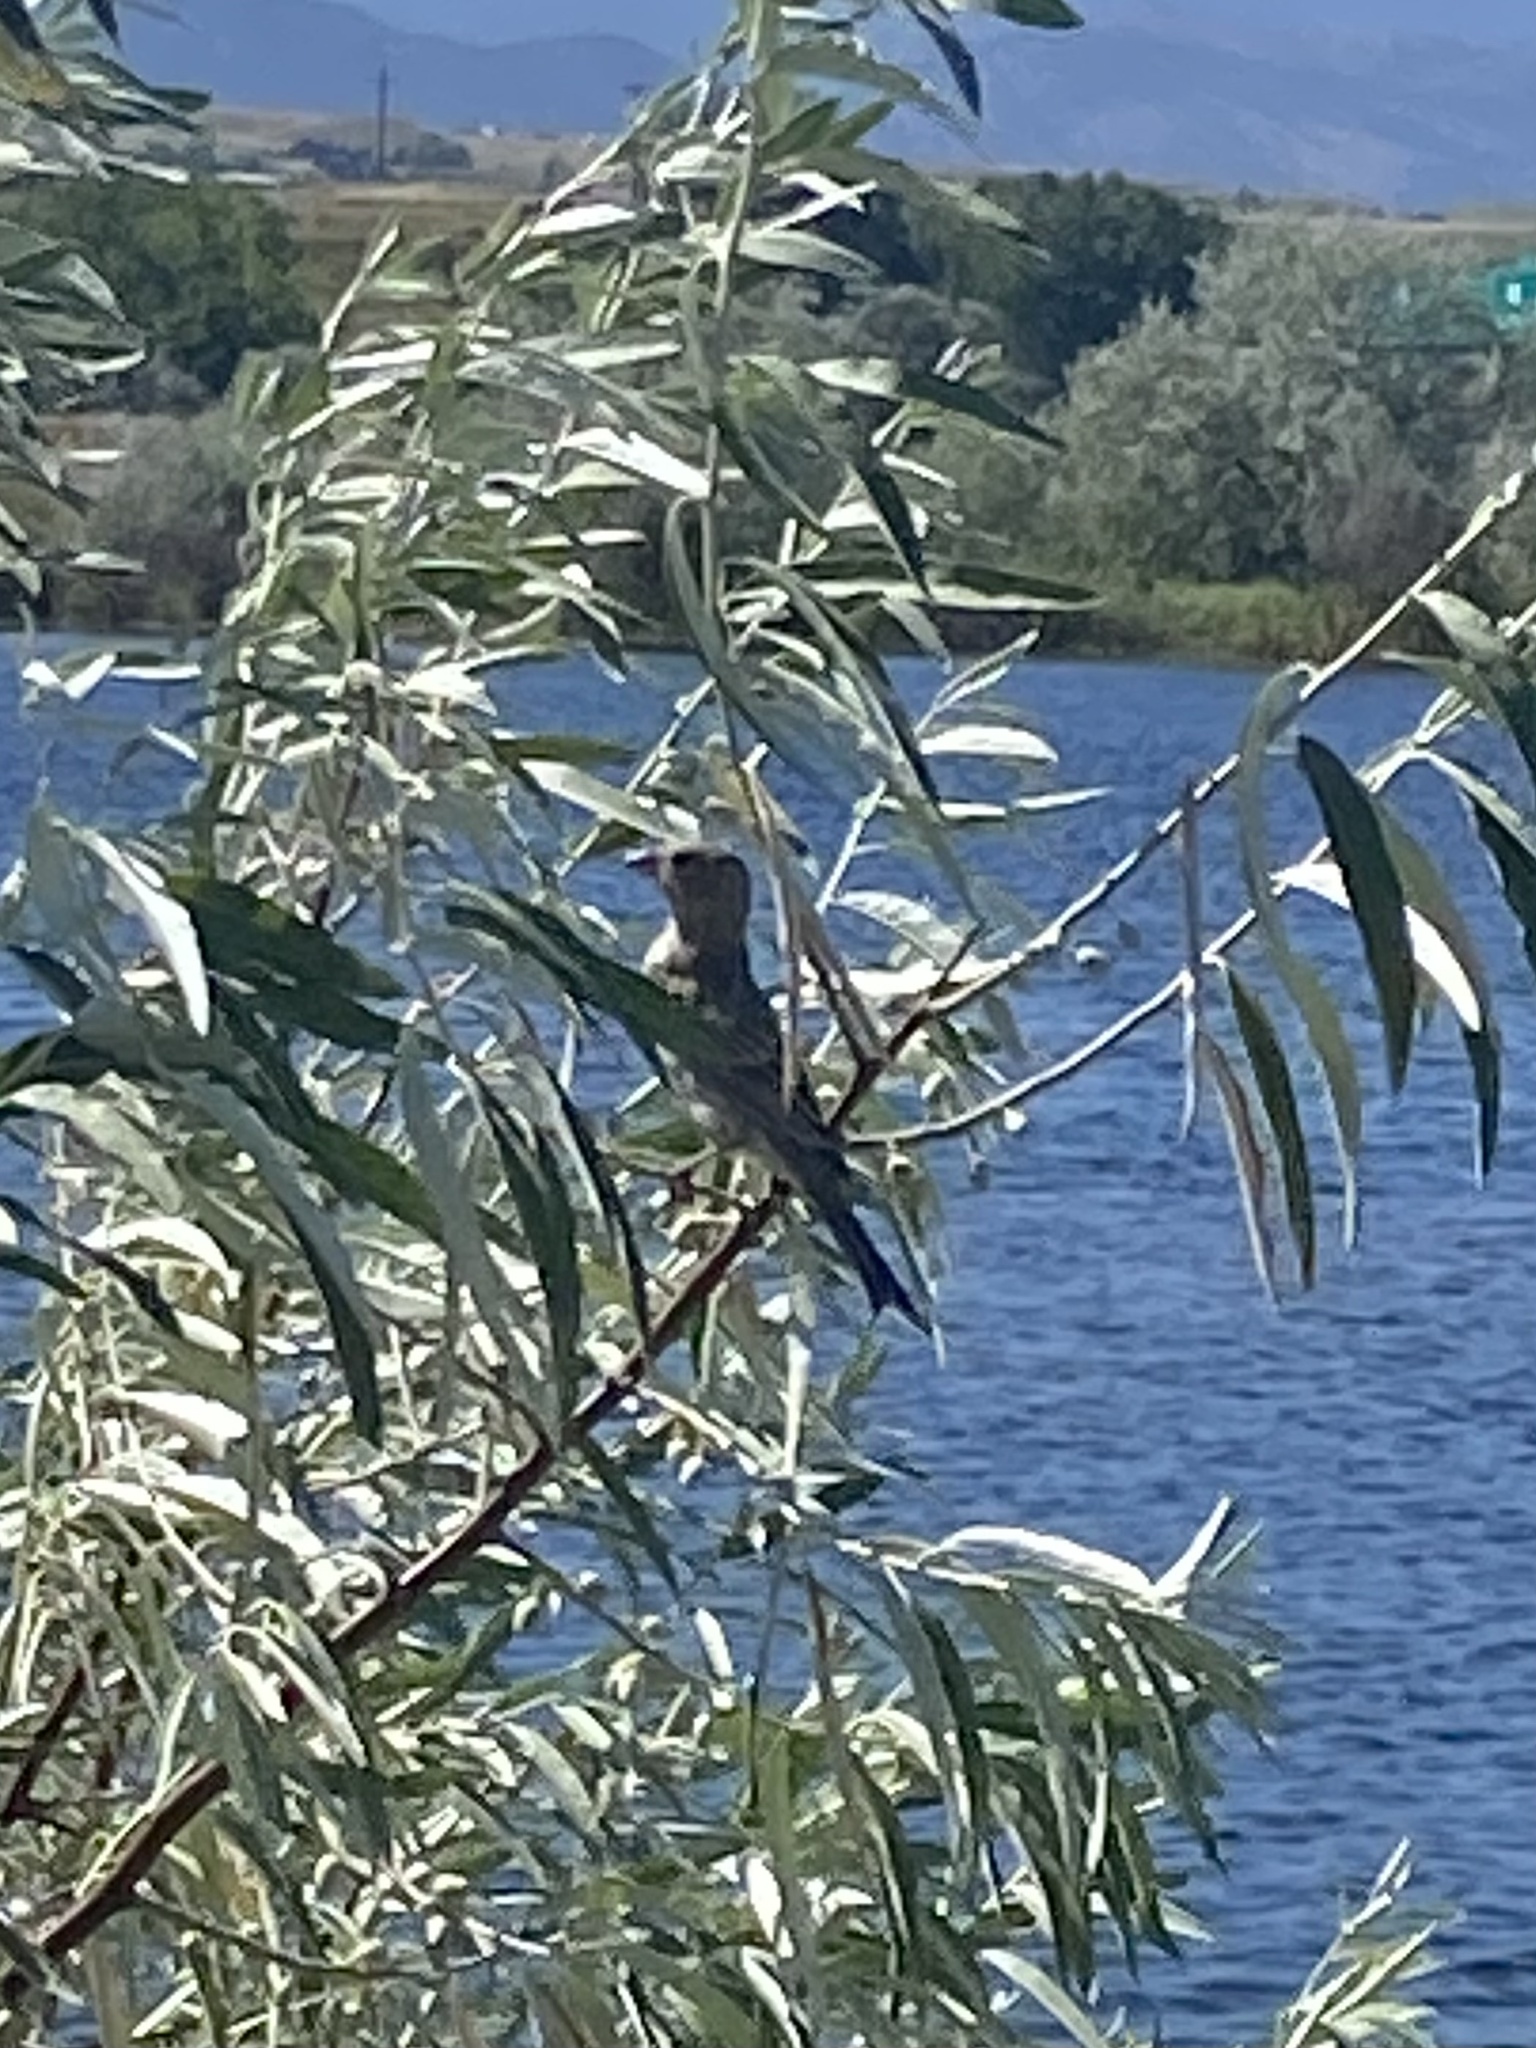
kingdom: Animalia
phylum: Chordata
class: Aves
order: Passeriformes
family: Fringillidae
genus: Haemorhous
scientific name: Haemorhous mexicanus
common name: House finch
